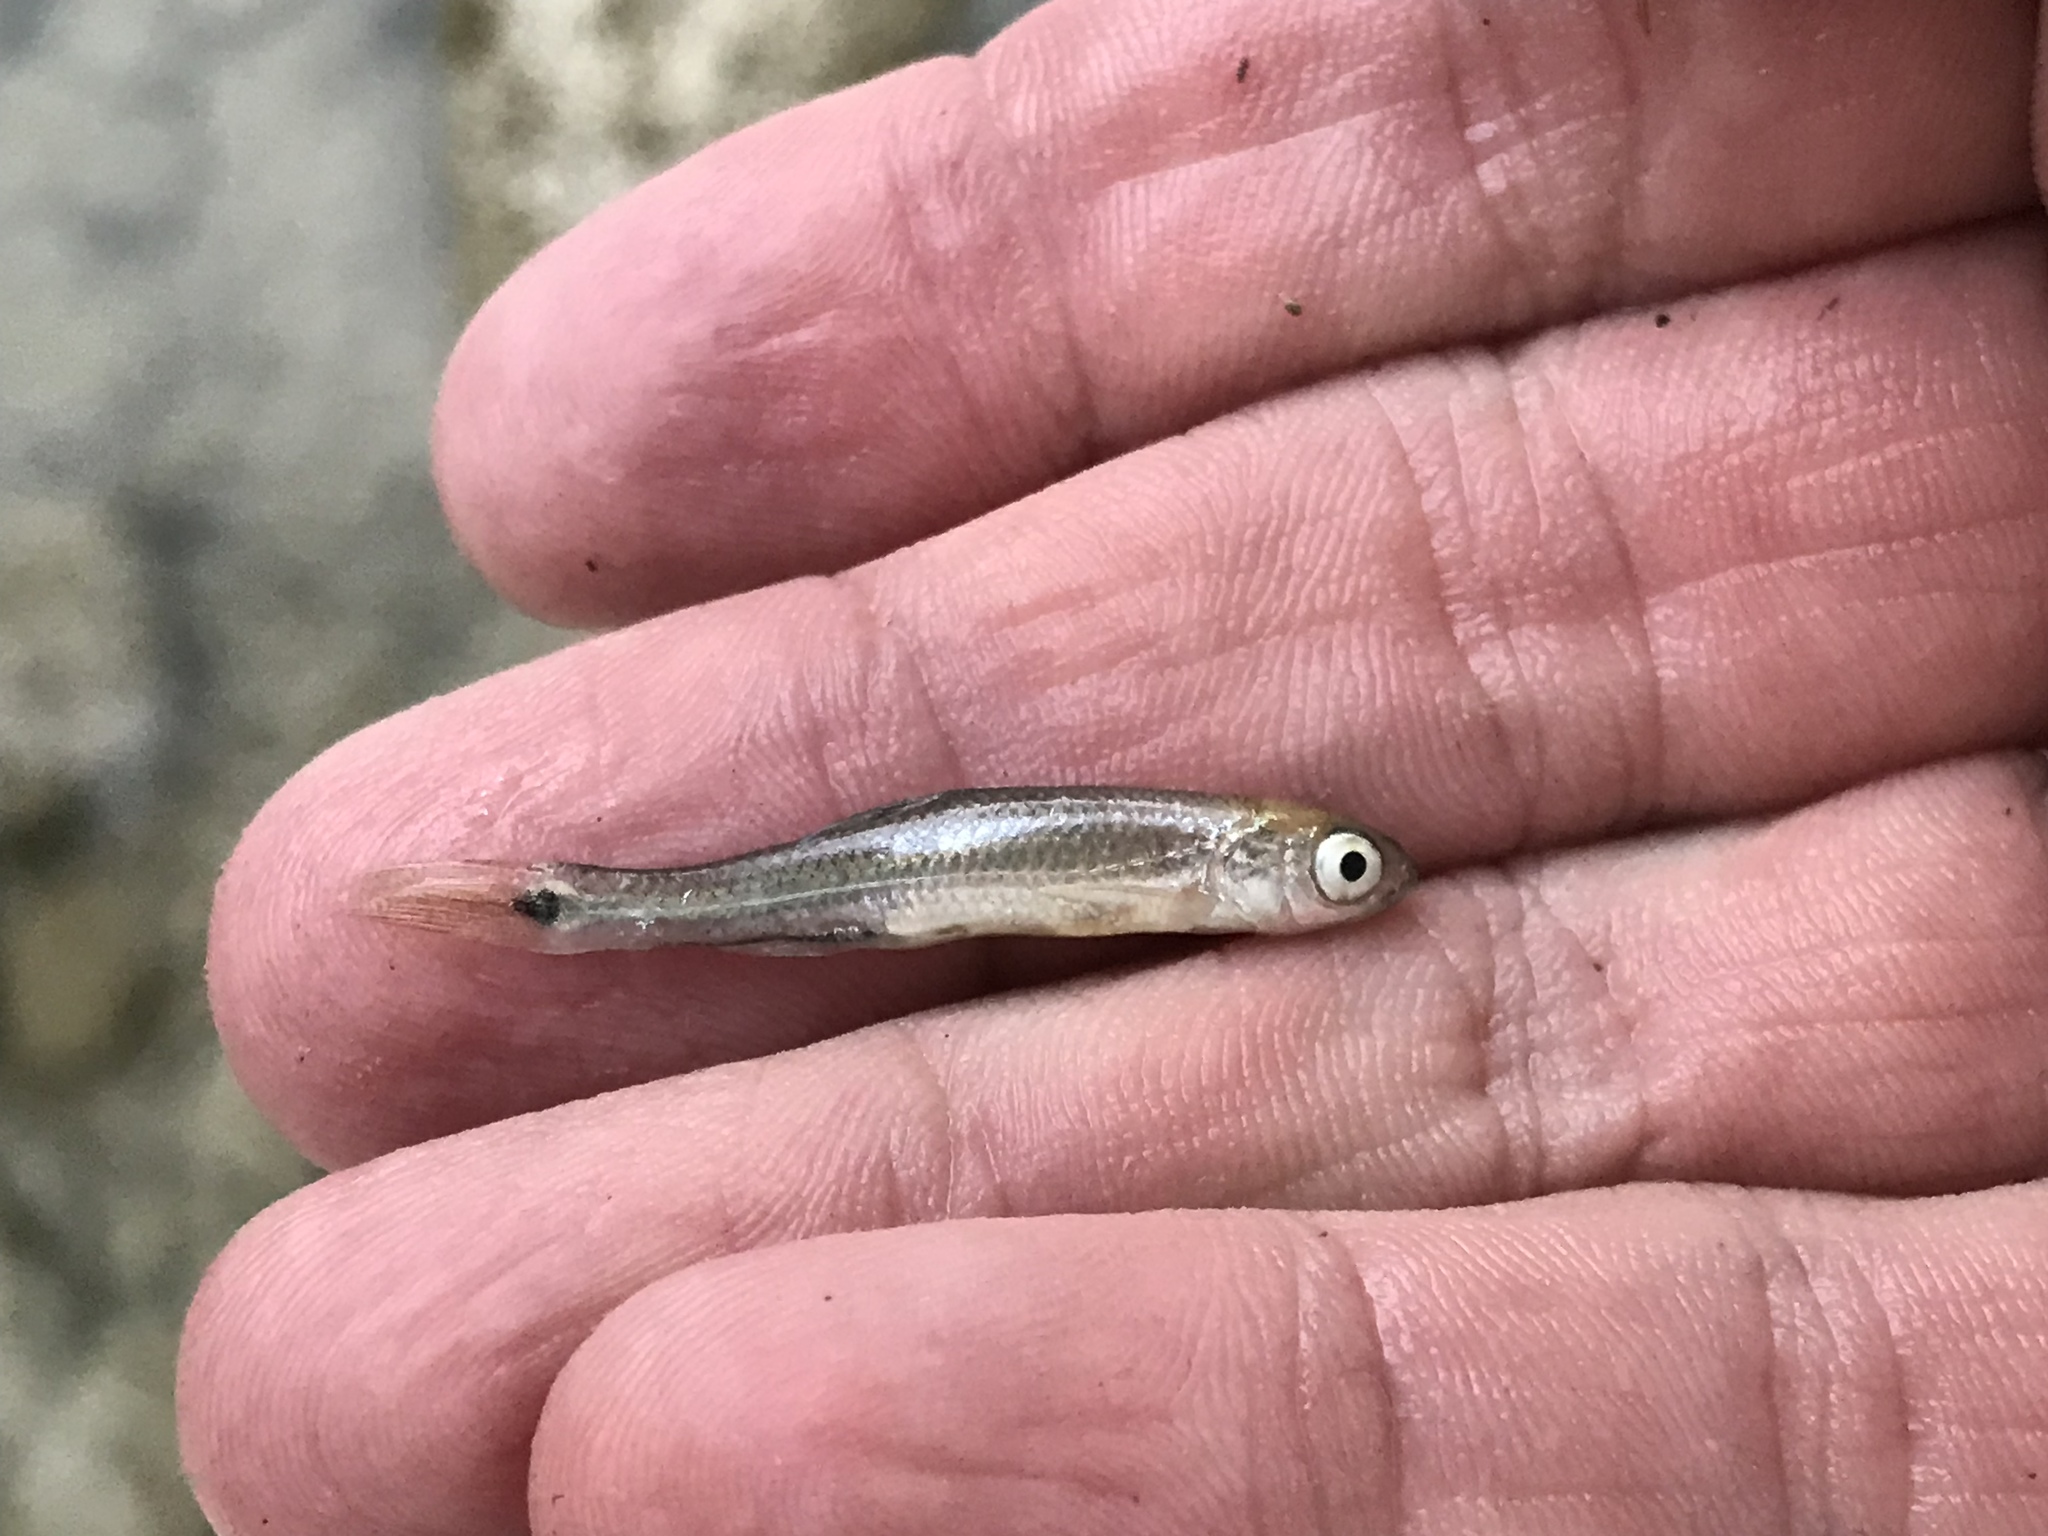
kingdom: Animalia
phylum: Chordata
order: Cypriniformes
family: Cyprinidae
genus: Cyprinella
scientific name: Cyprinella venusta
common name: Blacktail shiner
